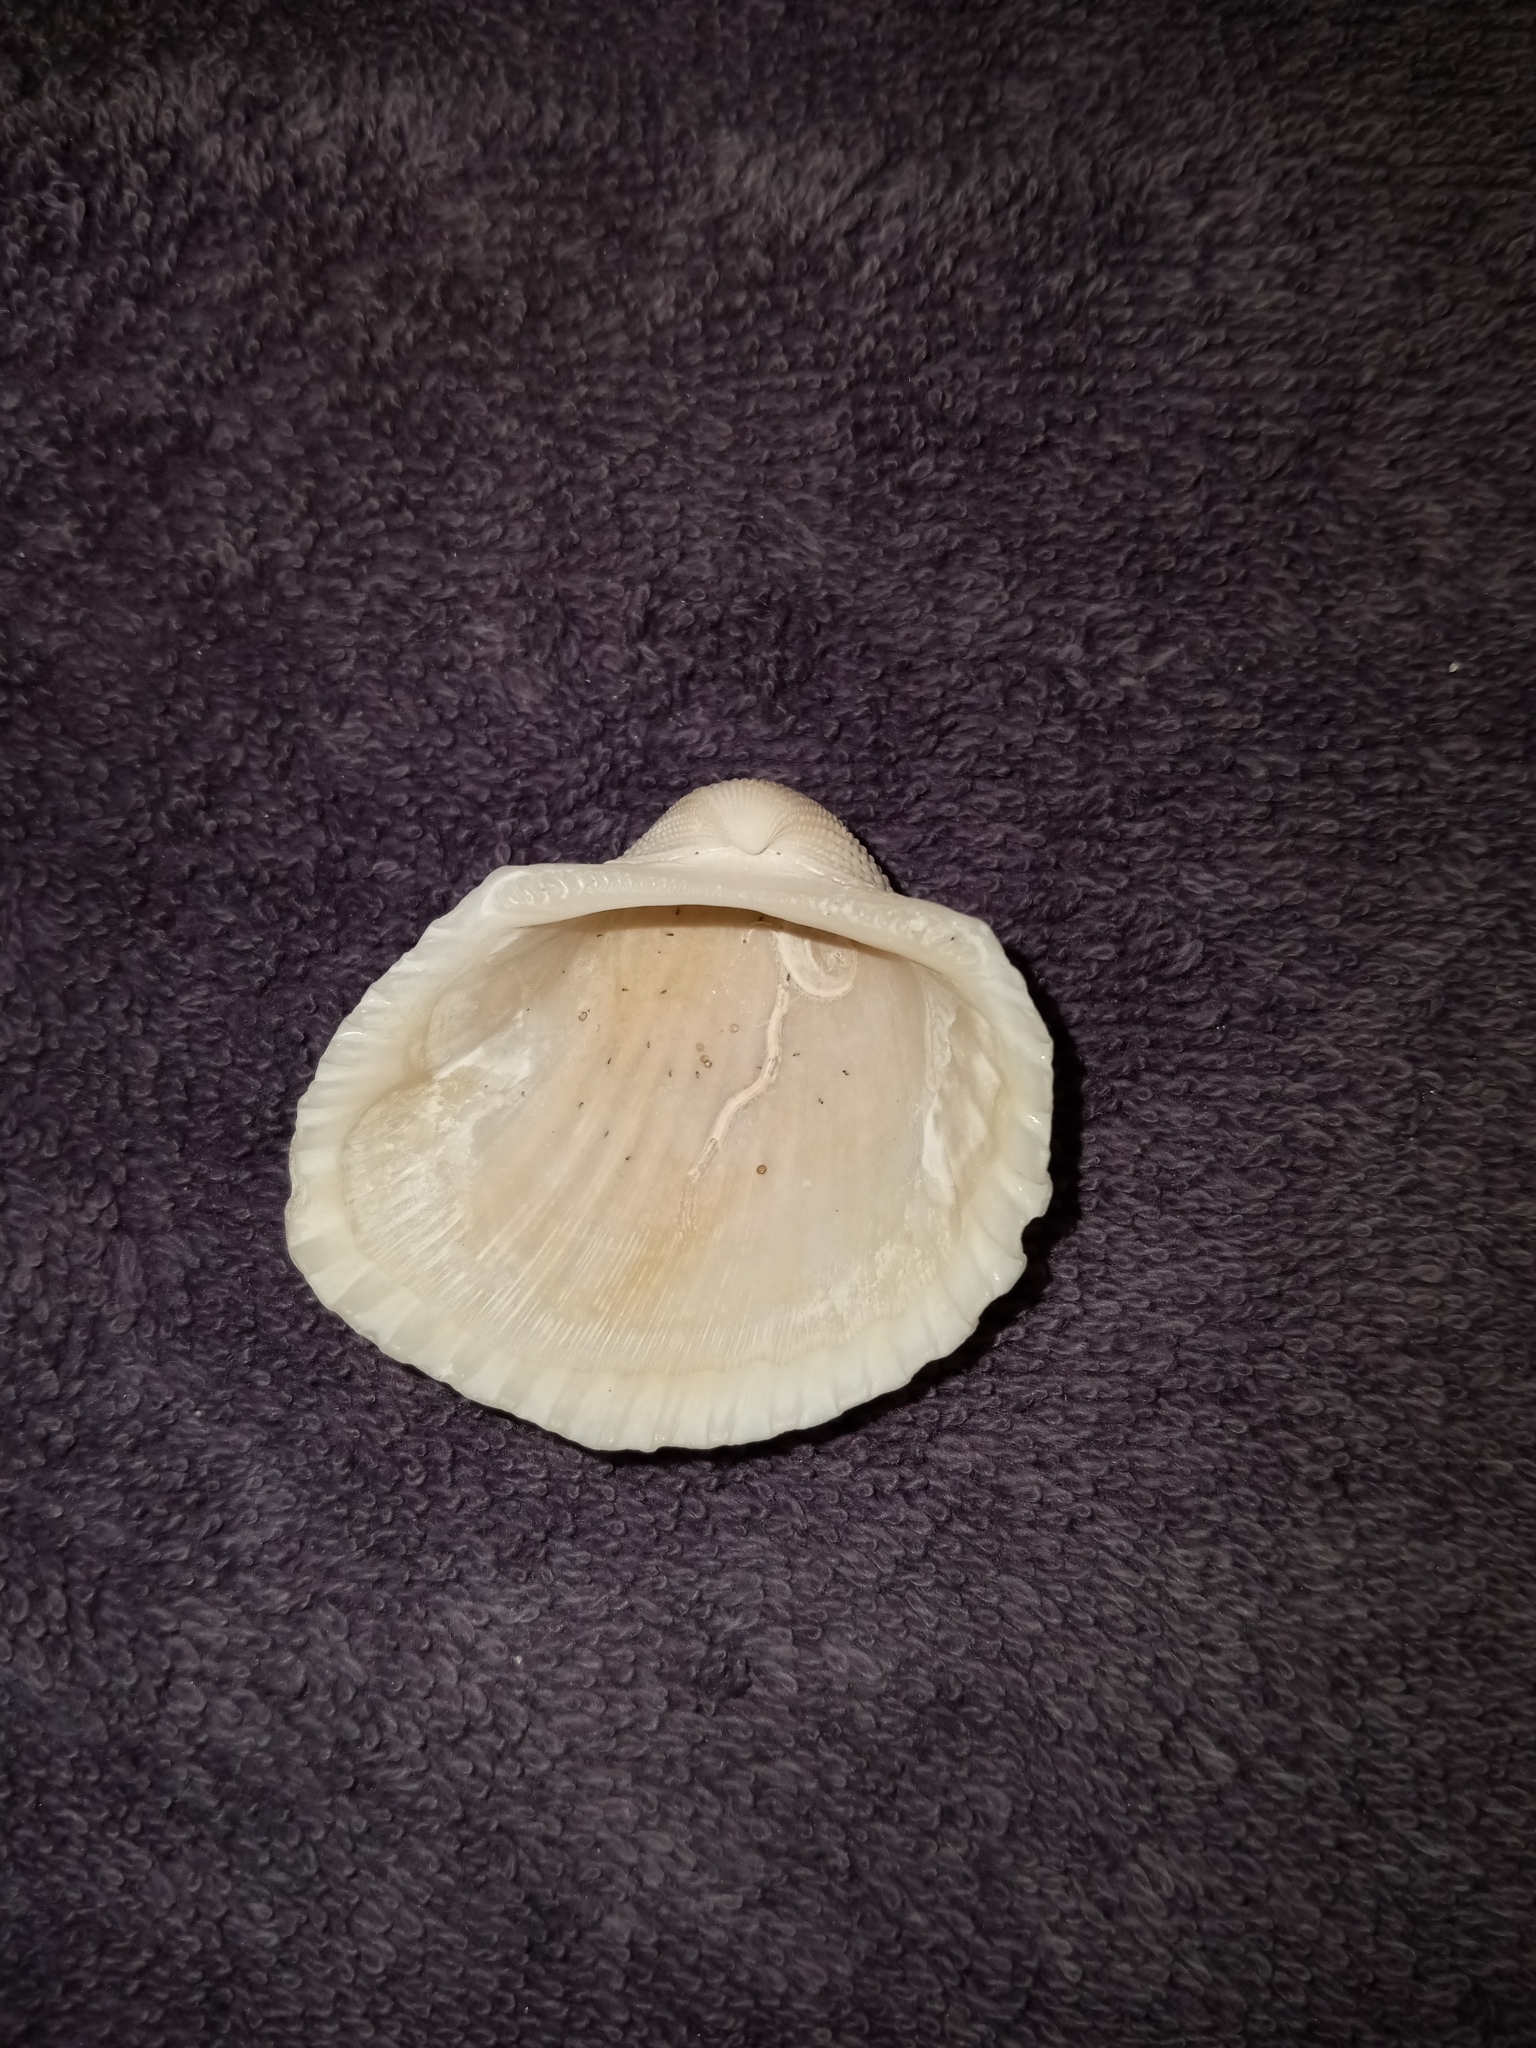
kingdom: Animalia
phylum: Mollusca
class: Bivalvia
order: Arcida
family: Arcidae
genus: Anadara
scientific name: Anadara brasiliana
